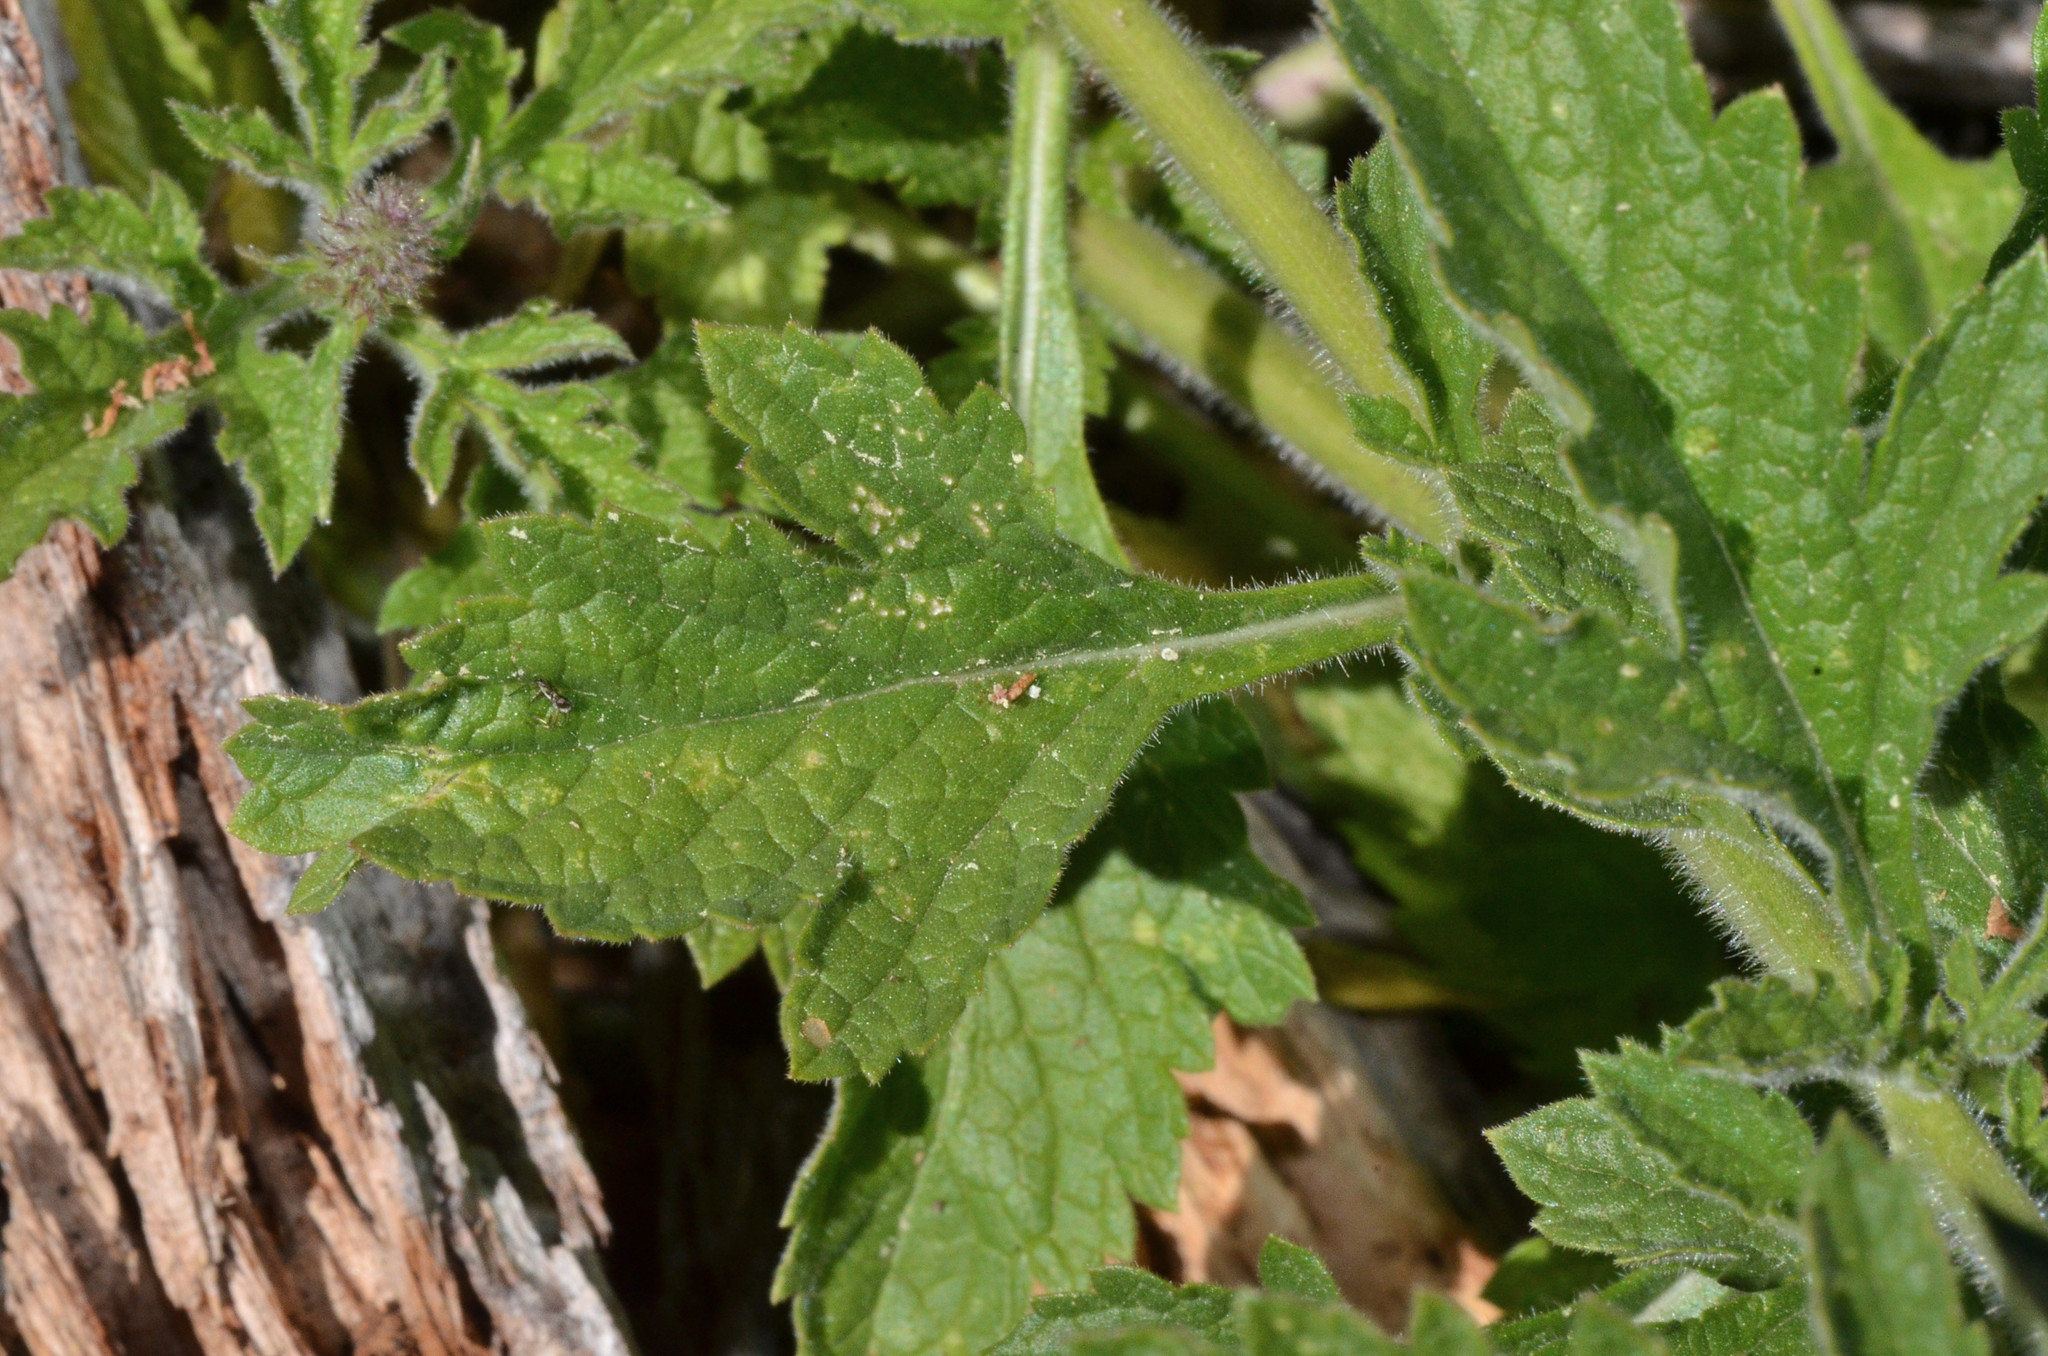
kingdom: Plantae
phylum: Tracheophyta
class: Magnoliopsida
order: Lamiales
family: Verbenaceae
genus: Verbena
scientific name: Verbena lasiostachys
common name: Vervain
